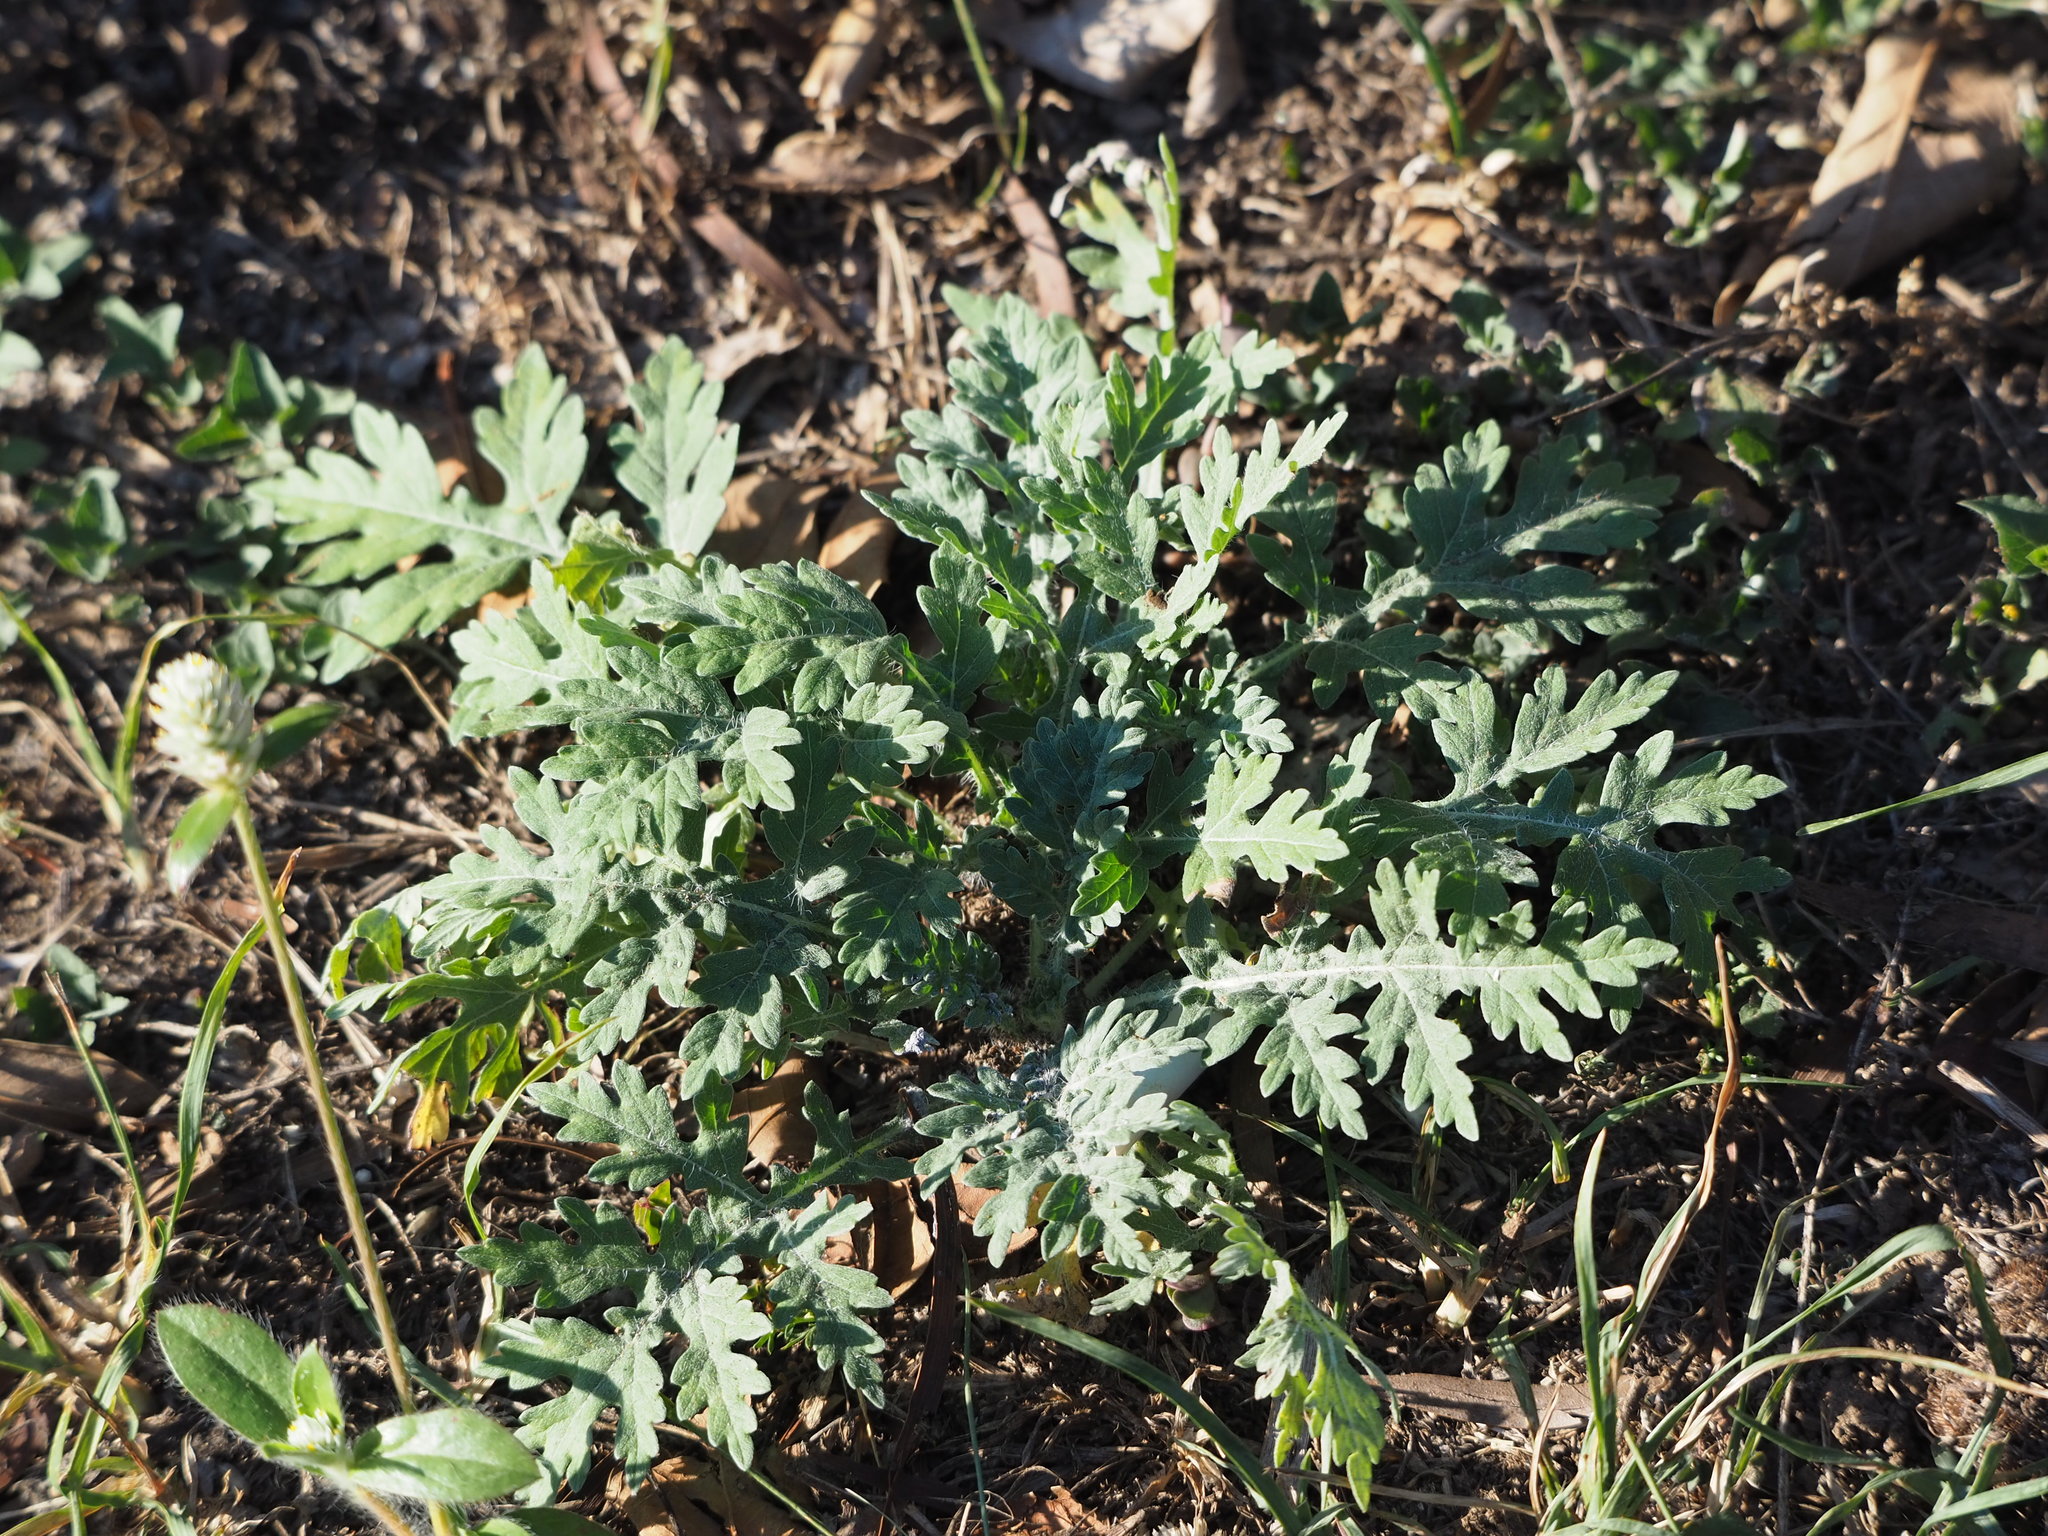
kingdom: Plantae
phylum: Tracheophyta
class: Magnoliopsida
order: Asterales
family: Asteraceae
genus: Parthenium
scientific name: Parthenium hysterophorus
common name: Santa maria feverfew
